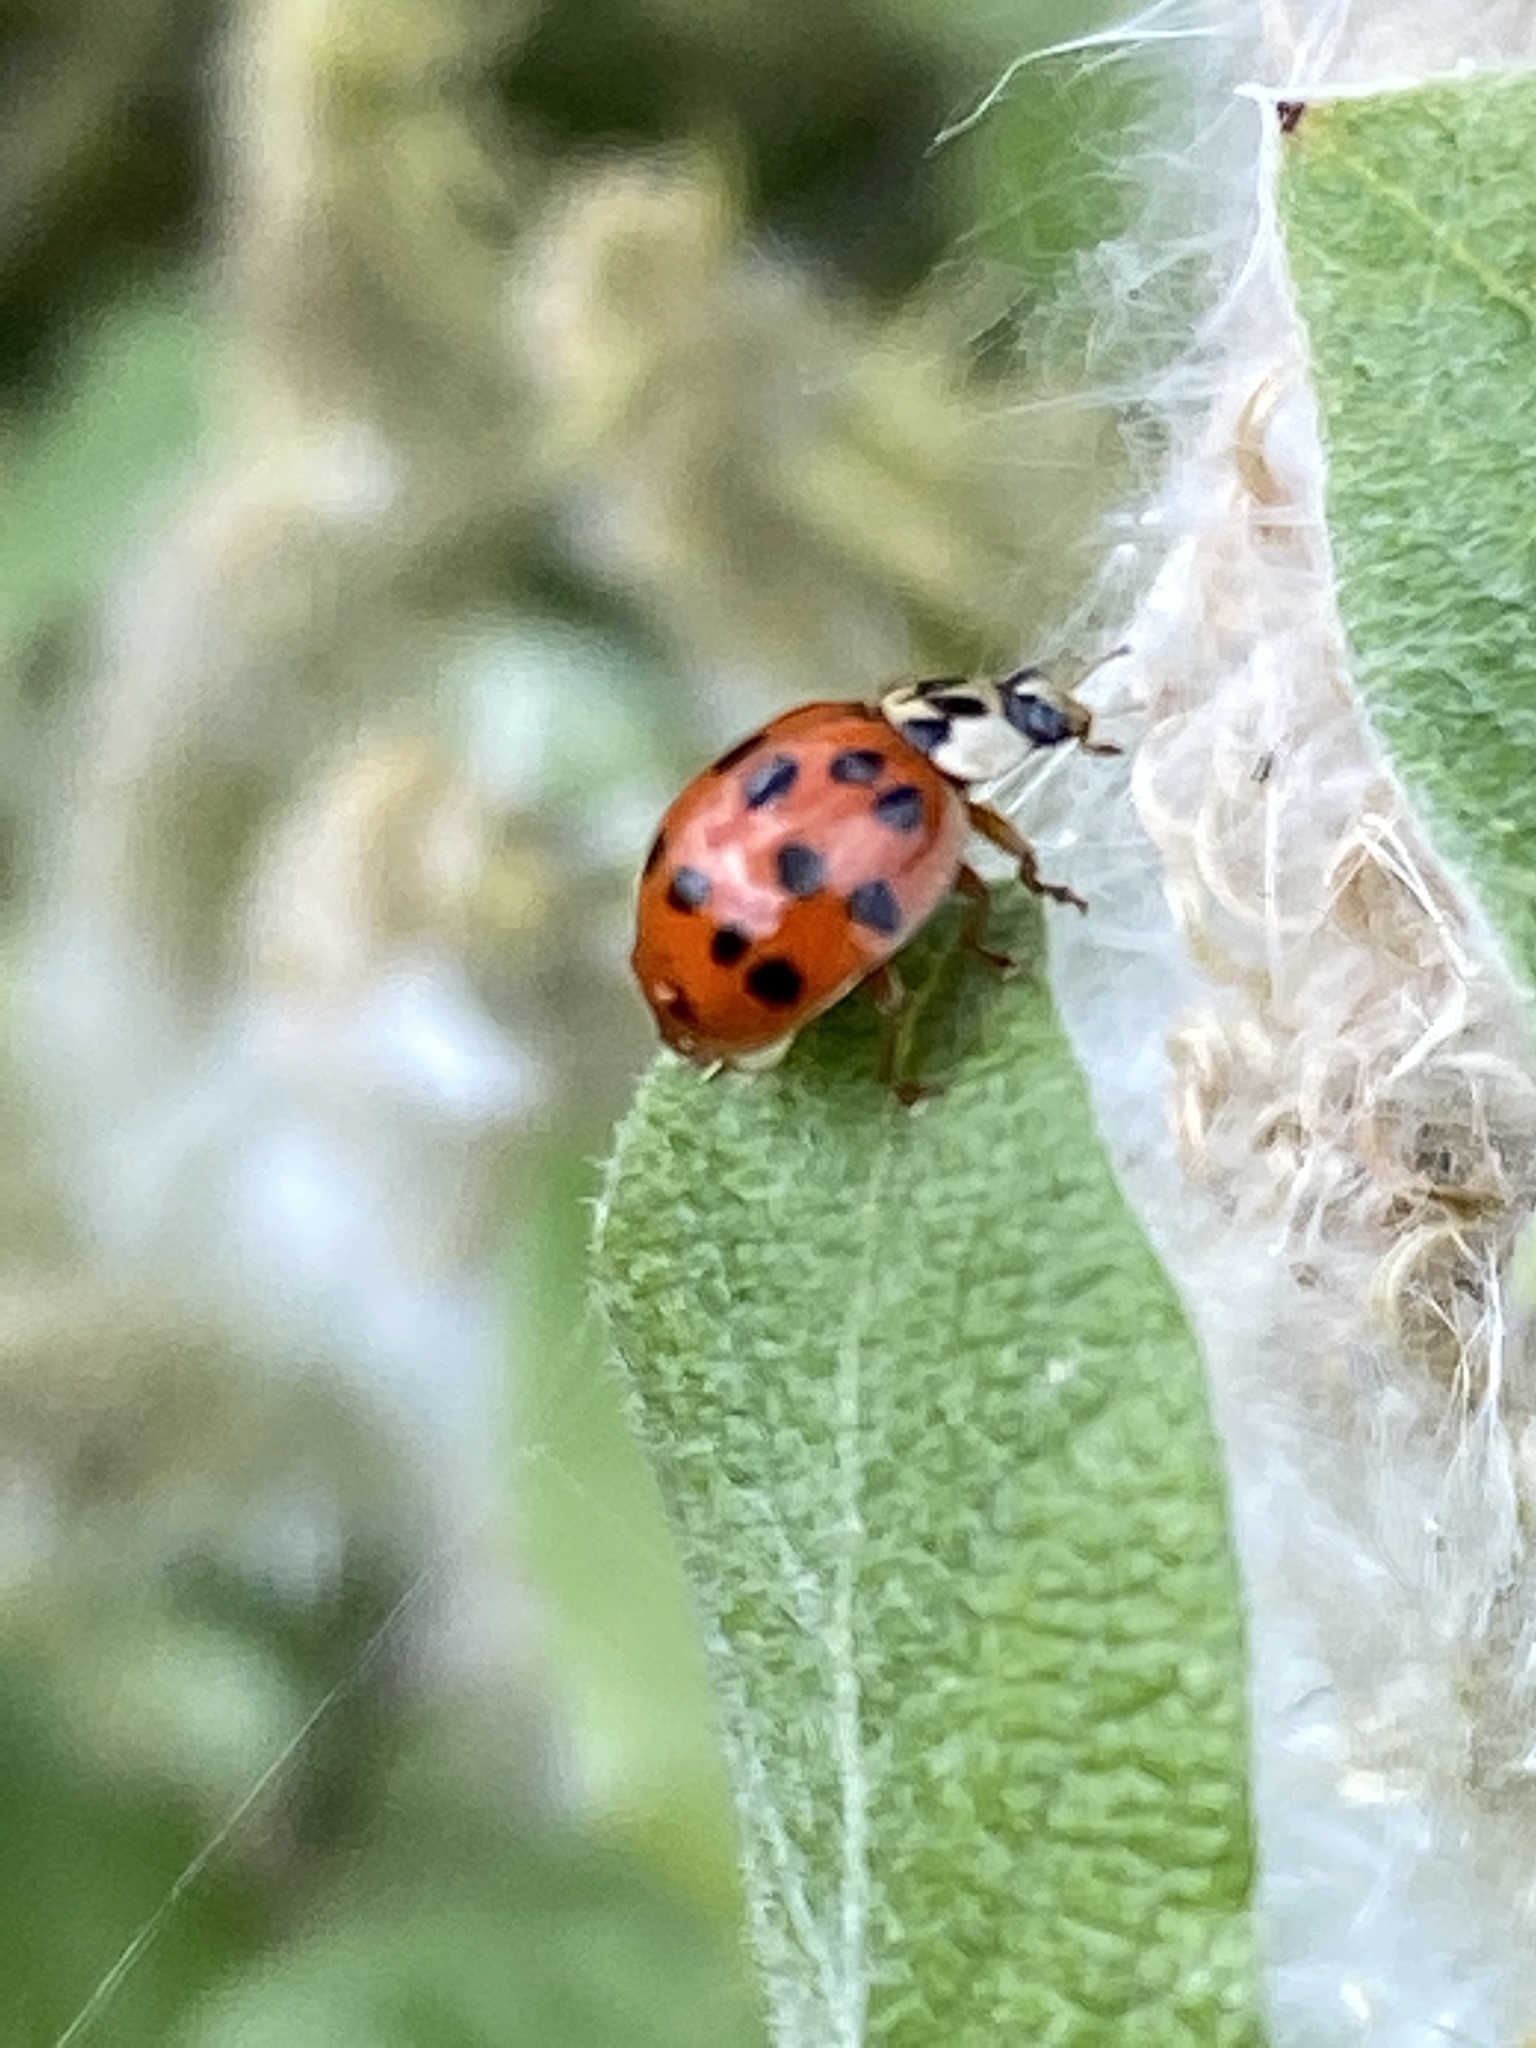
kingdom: Animalia
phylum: Arthropoda
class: Insecta
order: Coleoptera
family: Coccinellidae
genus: Harmonia
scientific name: Harmonia axyridis
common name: Harlequin ladybird
